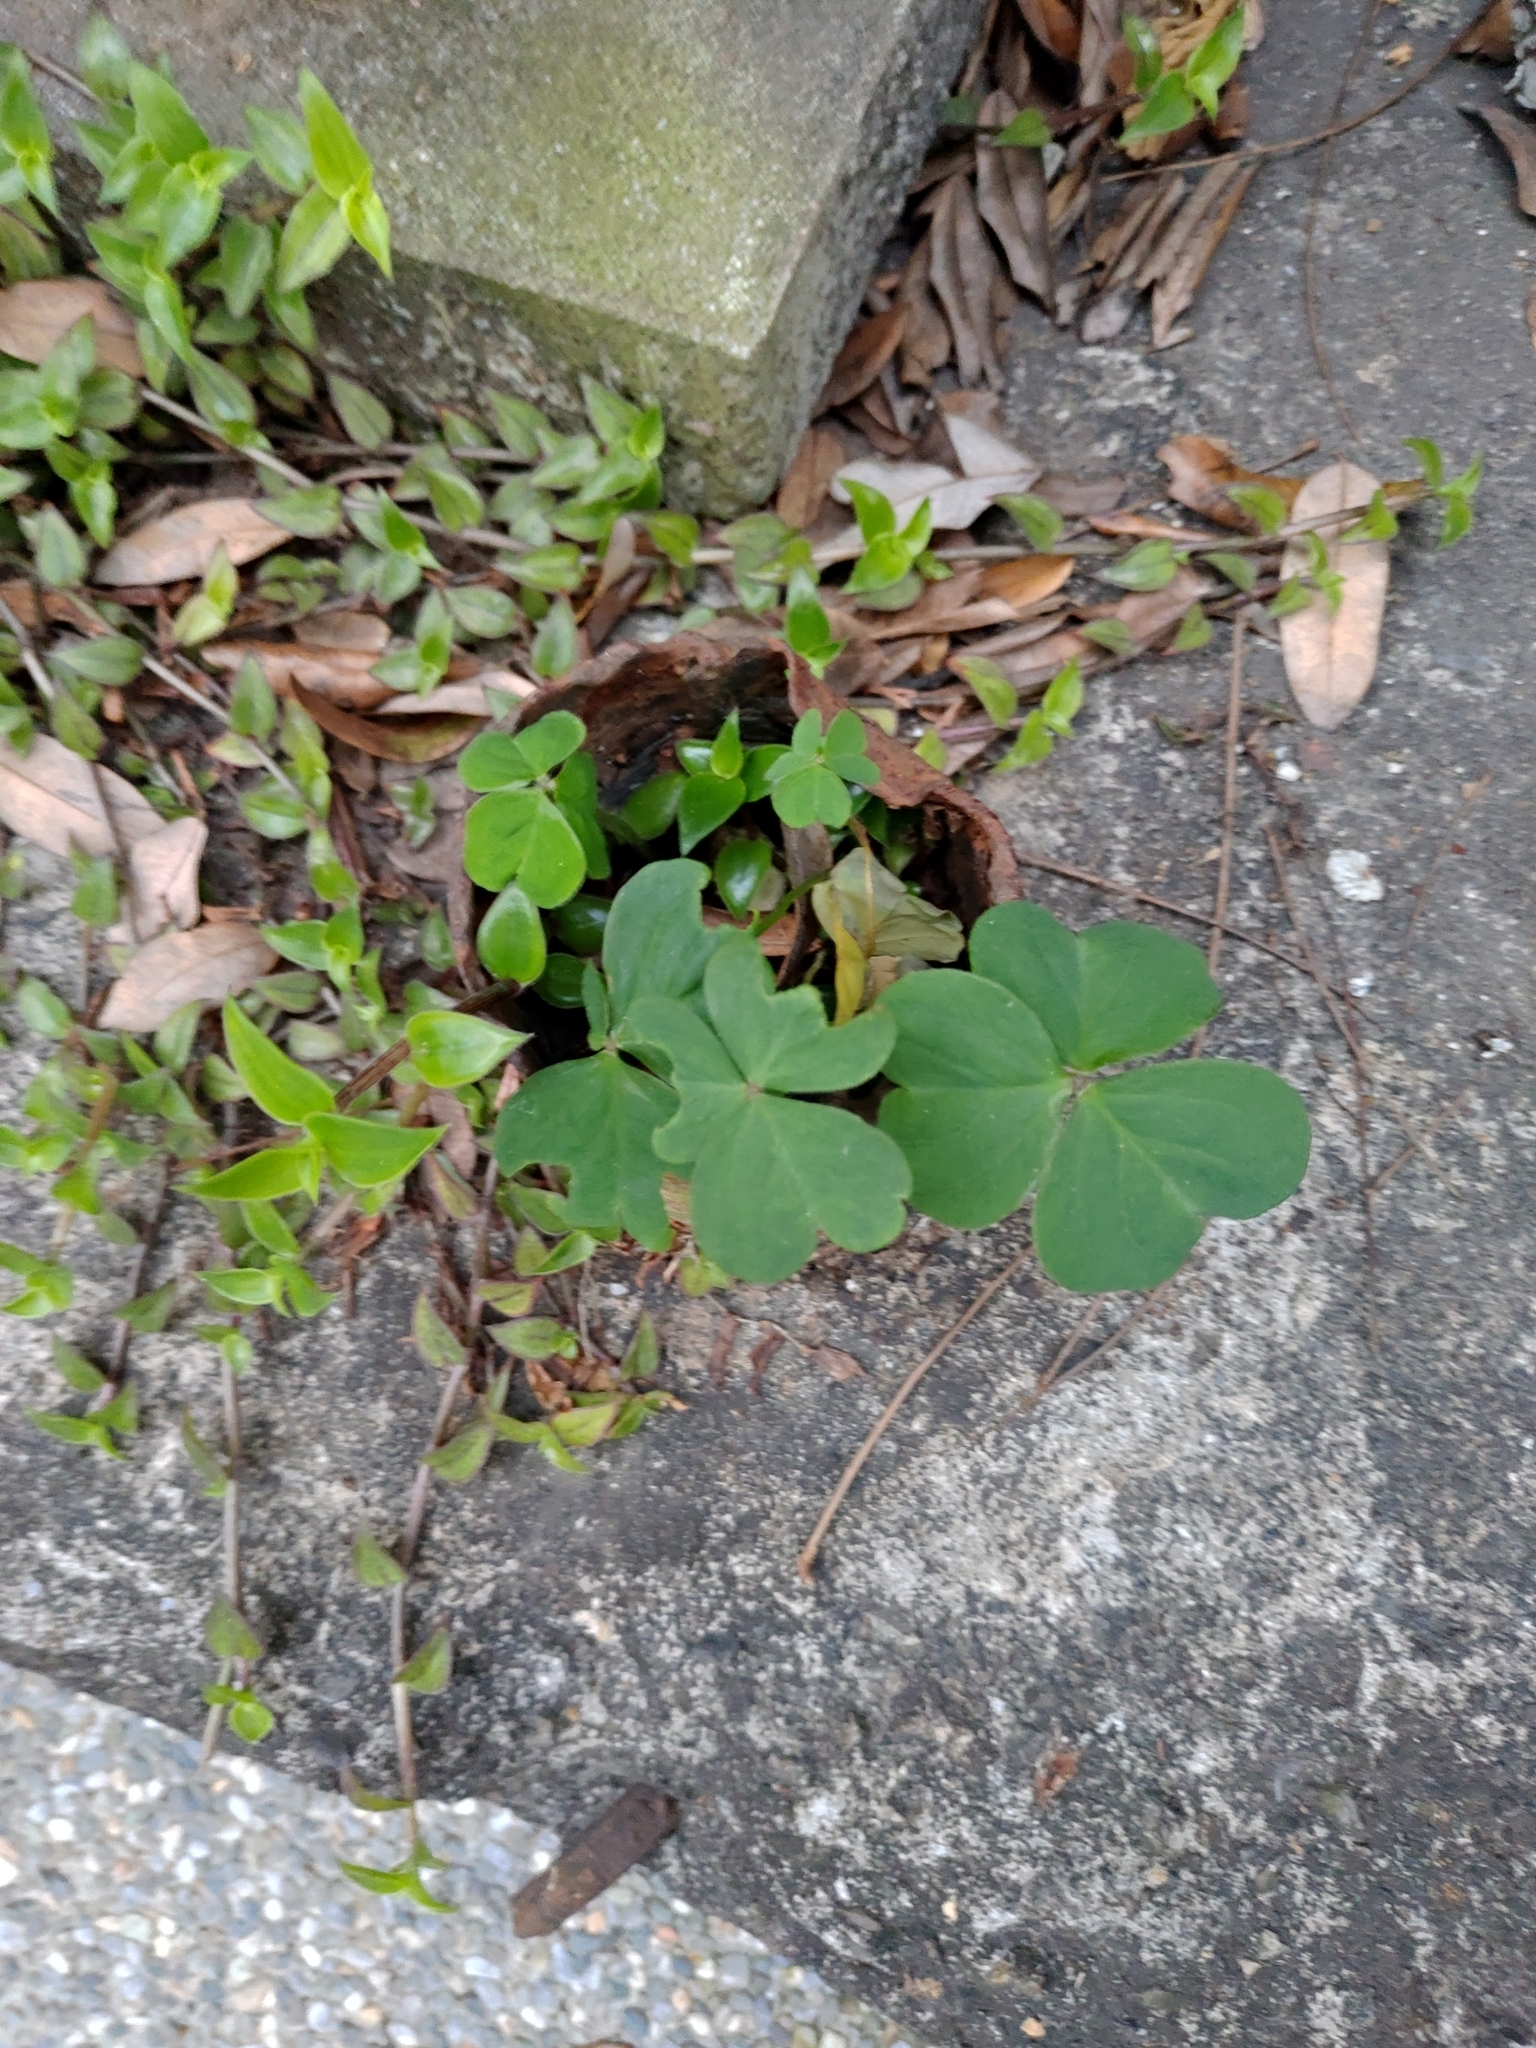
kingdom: Plantae
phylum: Tracheophyta
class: Magnoliopsida
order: Oxalidales
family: Oxalidaceae
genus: Oxalis
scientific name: Oxalis debilis
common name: Large-flowered pink-sorrel
